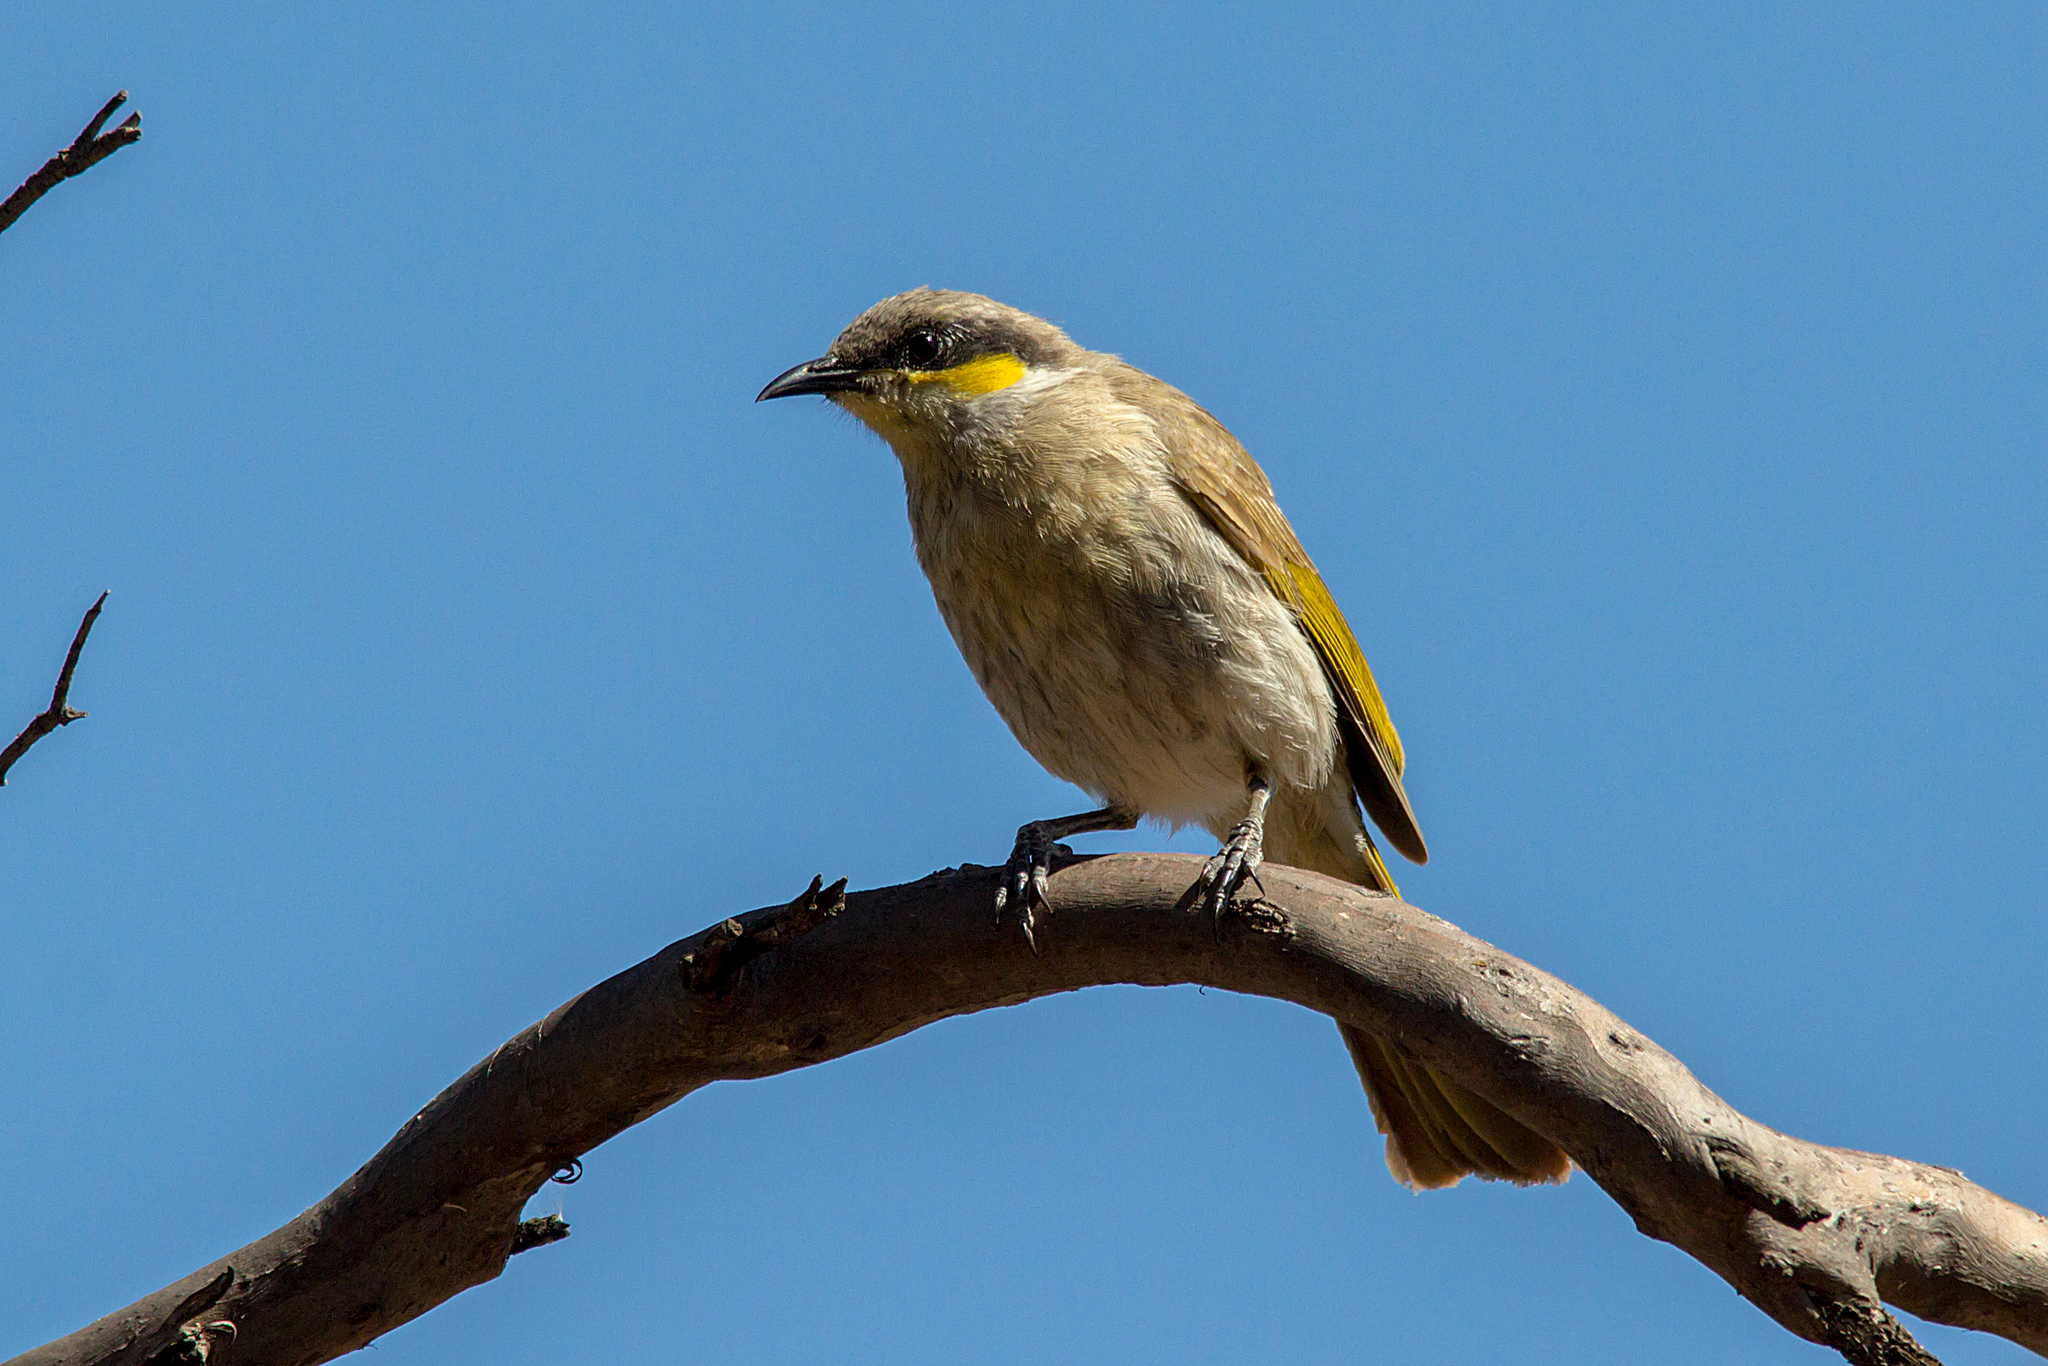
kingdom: Animalia
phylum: Chordata
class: Aves
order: Passeriformes
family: Meliphagidae
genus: Gavicalis
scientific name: Gavicalis virescens
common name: Singing honeyeater
